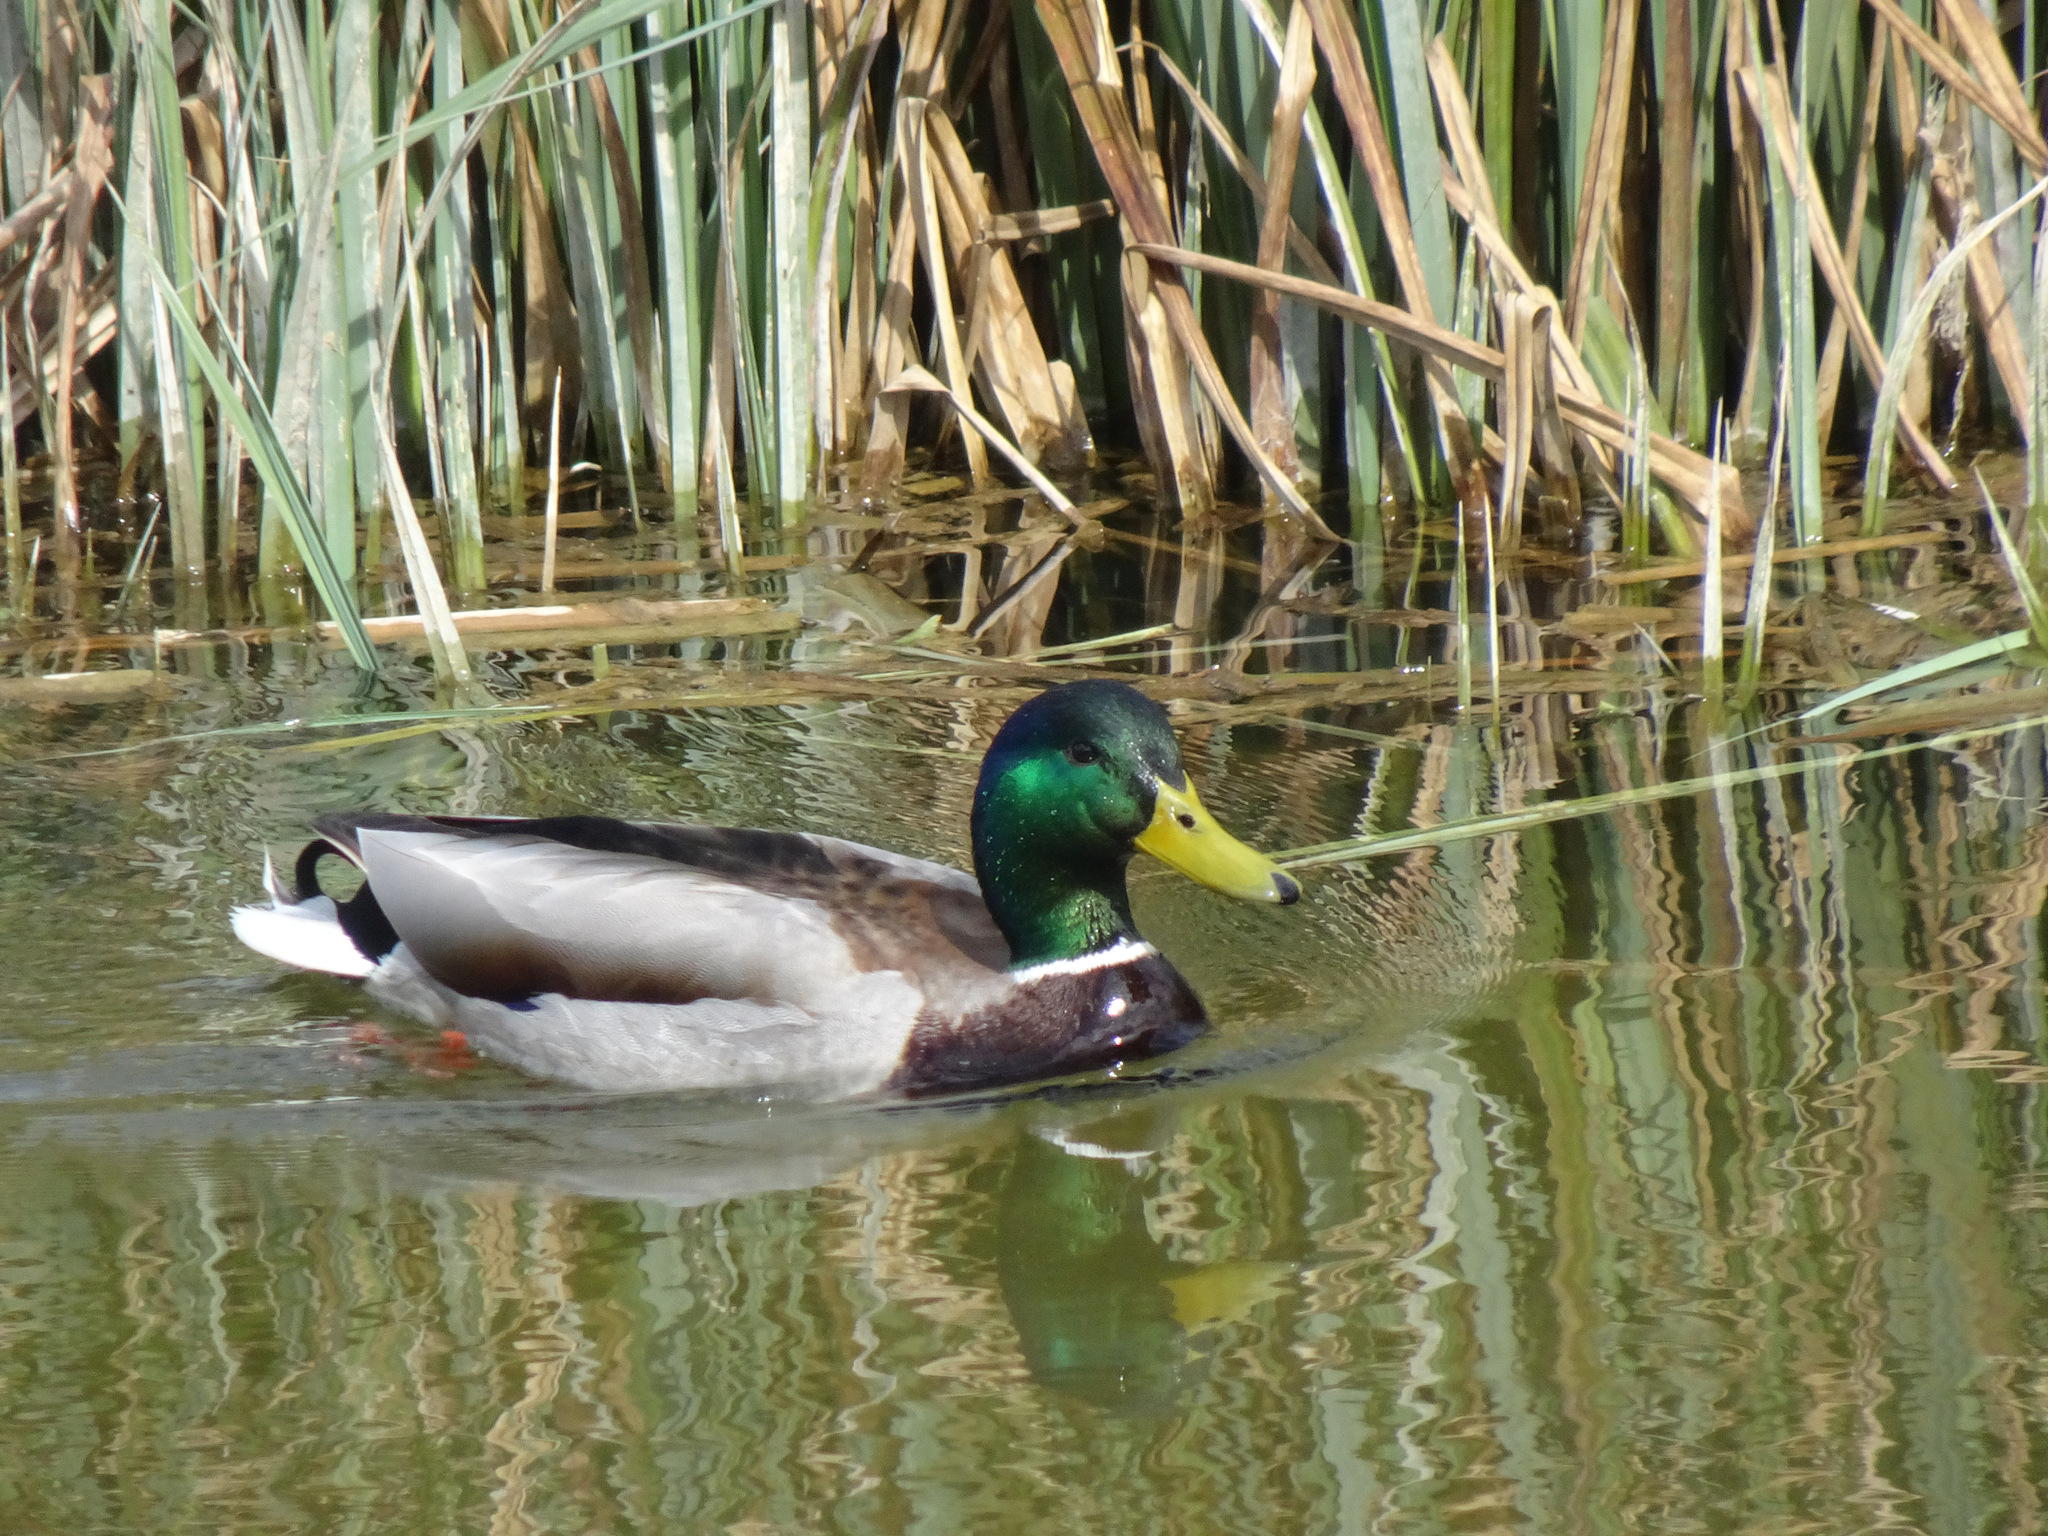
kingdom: Animalia
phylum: Chordata
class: Aves
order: Anseriformes
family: Anatidae
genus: Anas
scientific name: Anas platyrhynchos
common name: Mallard
